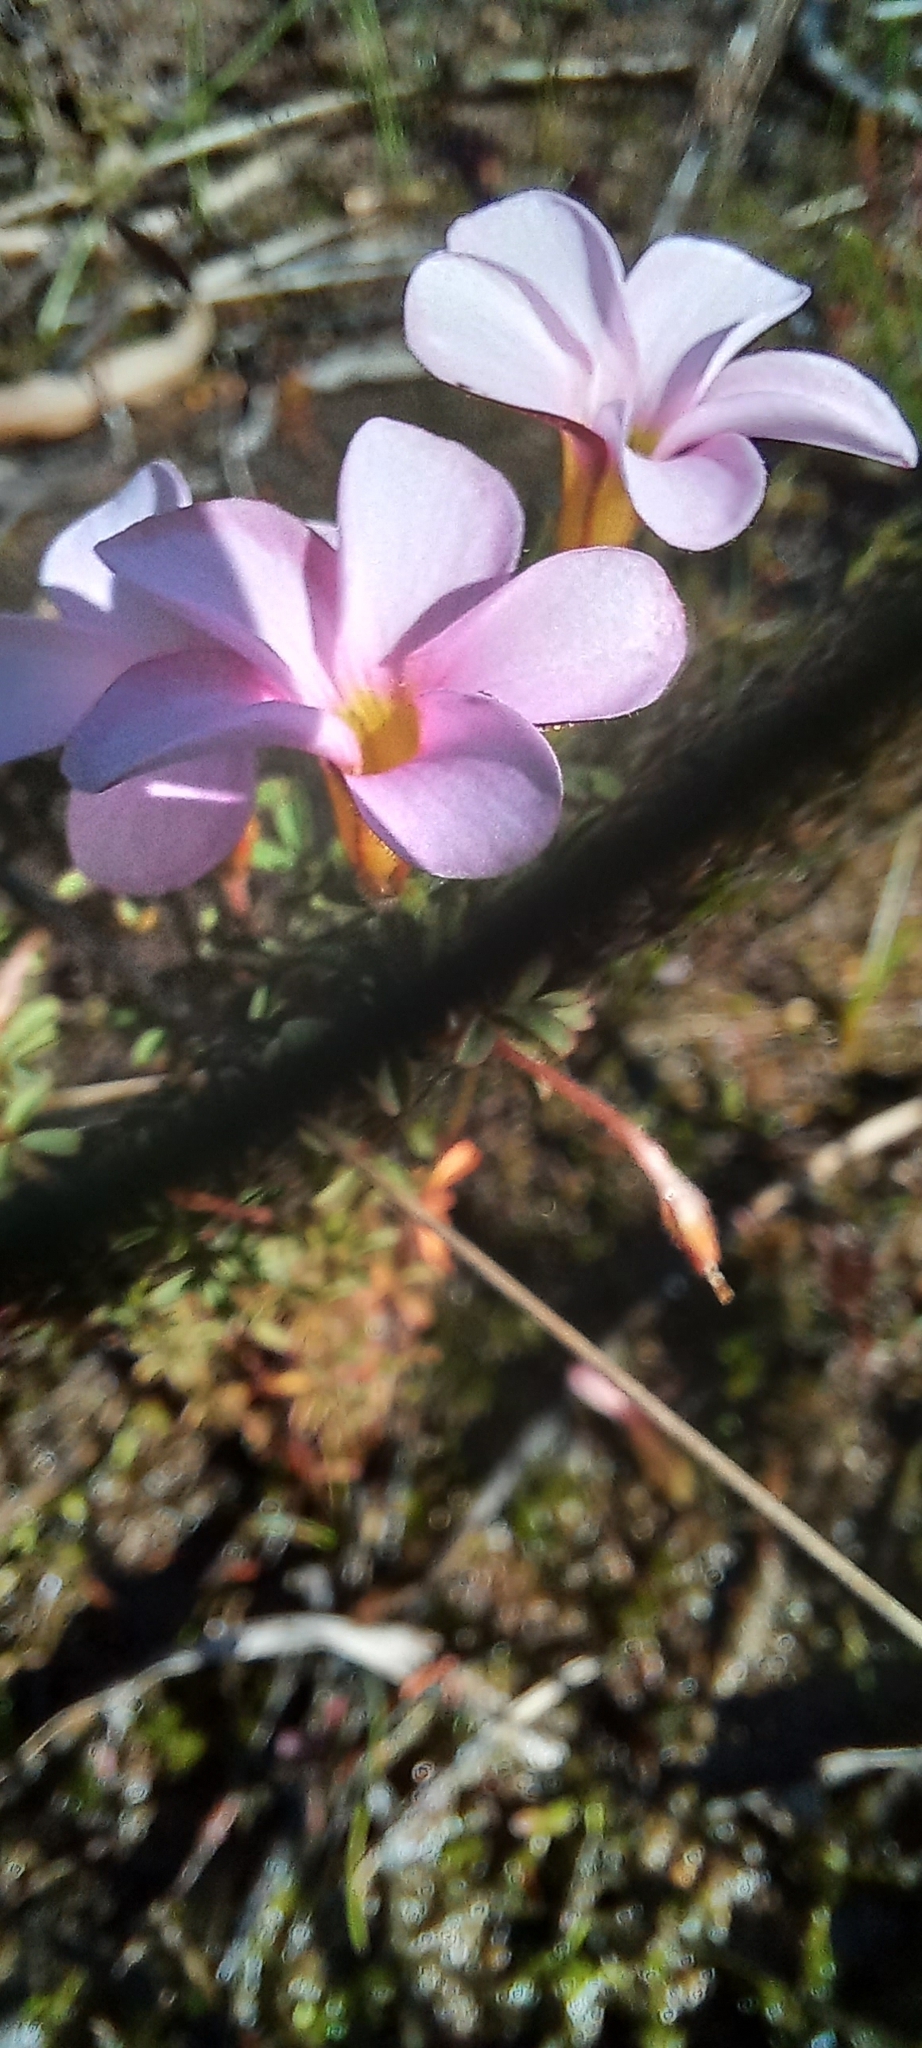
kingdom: Plantae
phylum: Tracheophyta
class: Magnoliopsida
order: Oxalidales
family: Oxalidaceae
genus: Oxalis
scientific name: Oxalis multicaulis
